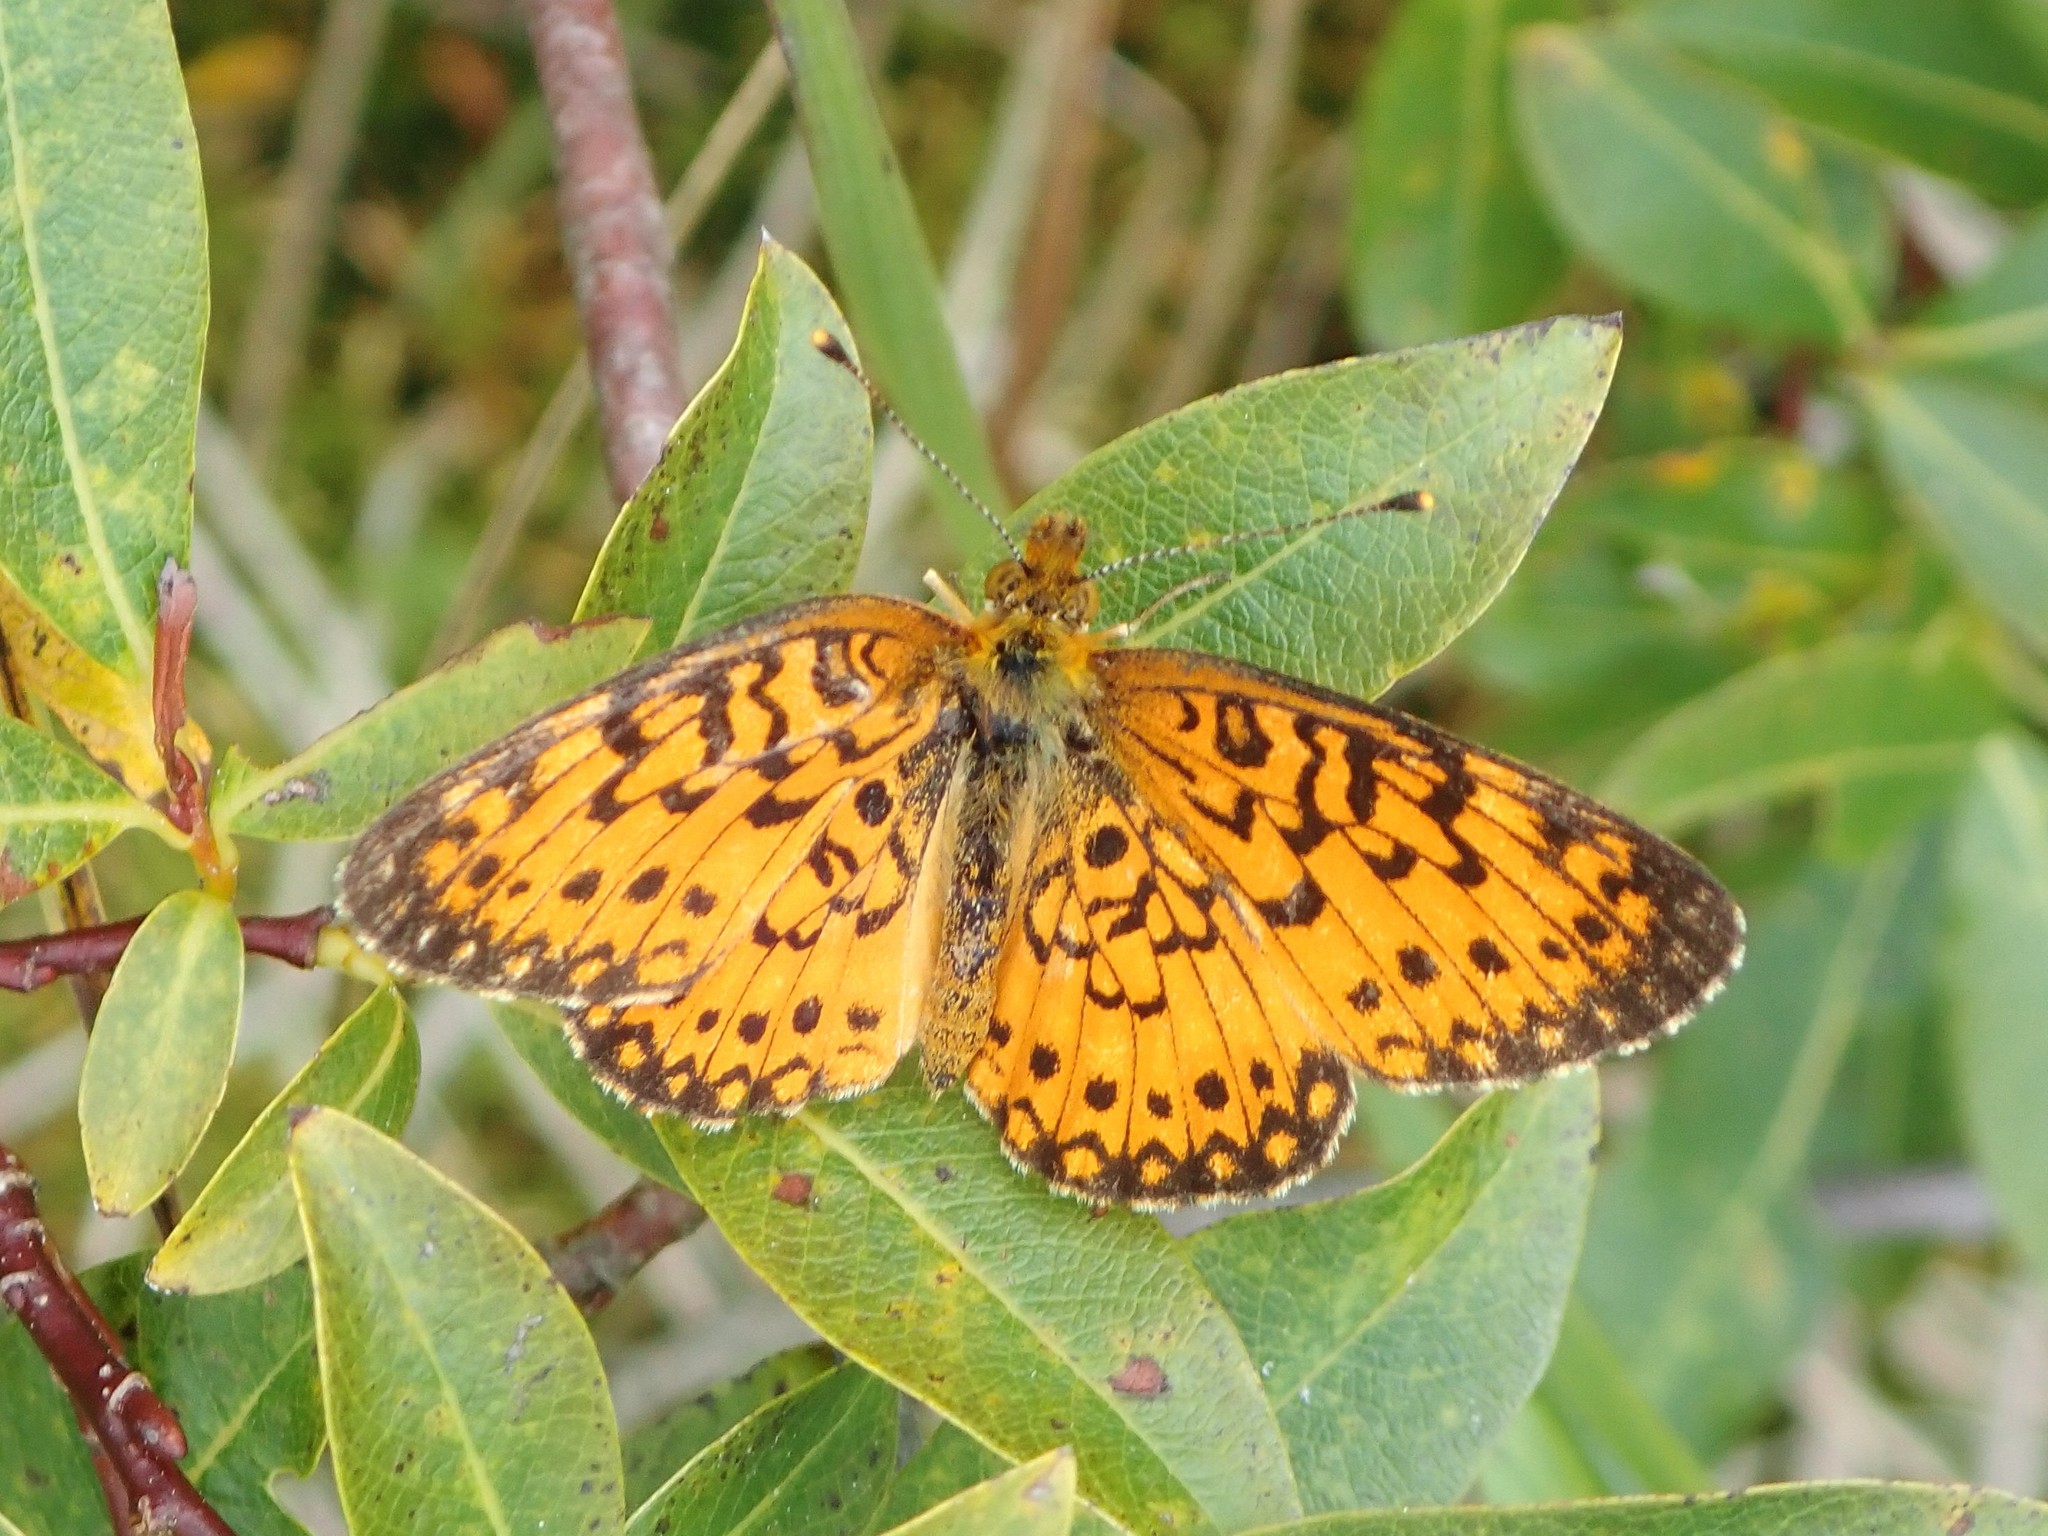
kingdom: Animalia
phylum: Arthropoda
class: Insecta
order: Lepidoptera
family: Nymphalidae
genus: Boloria
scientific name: Boloria
